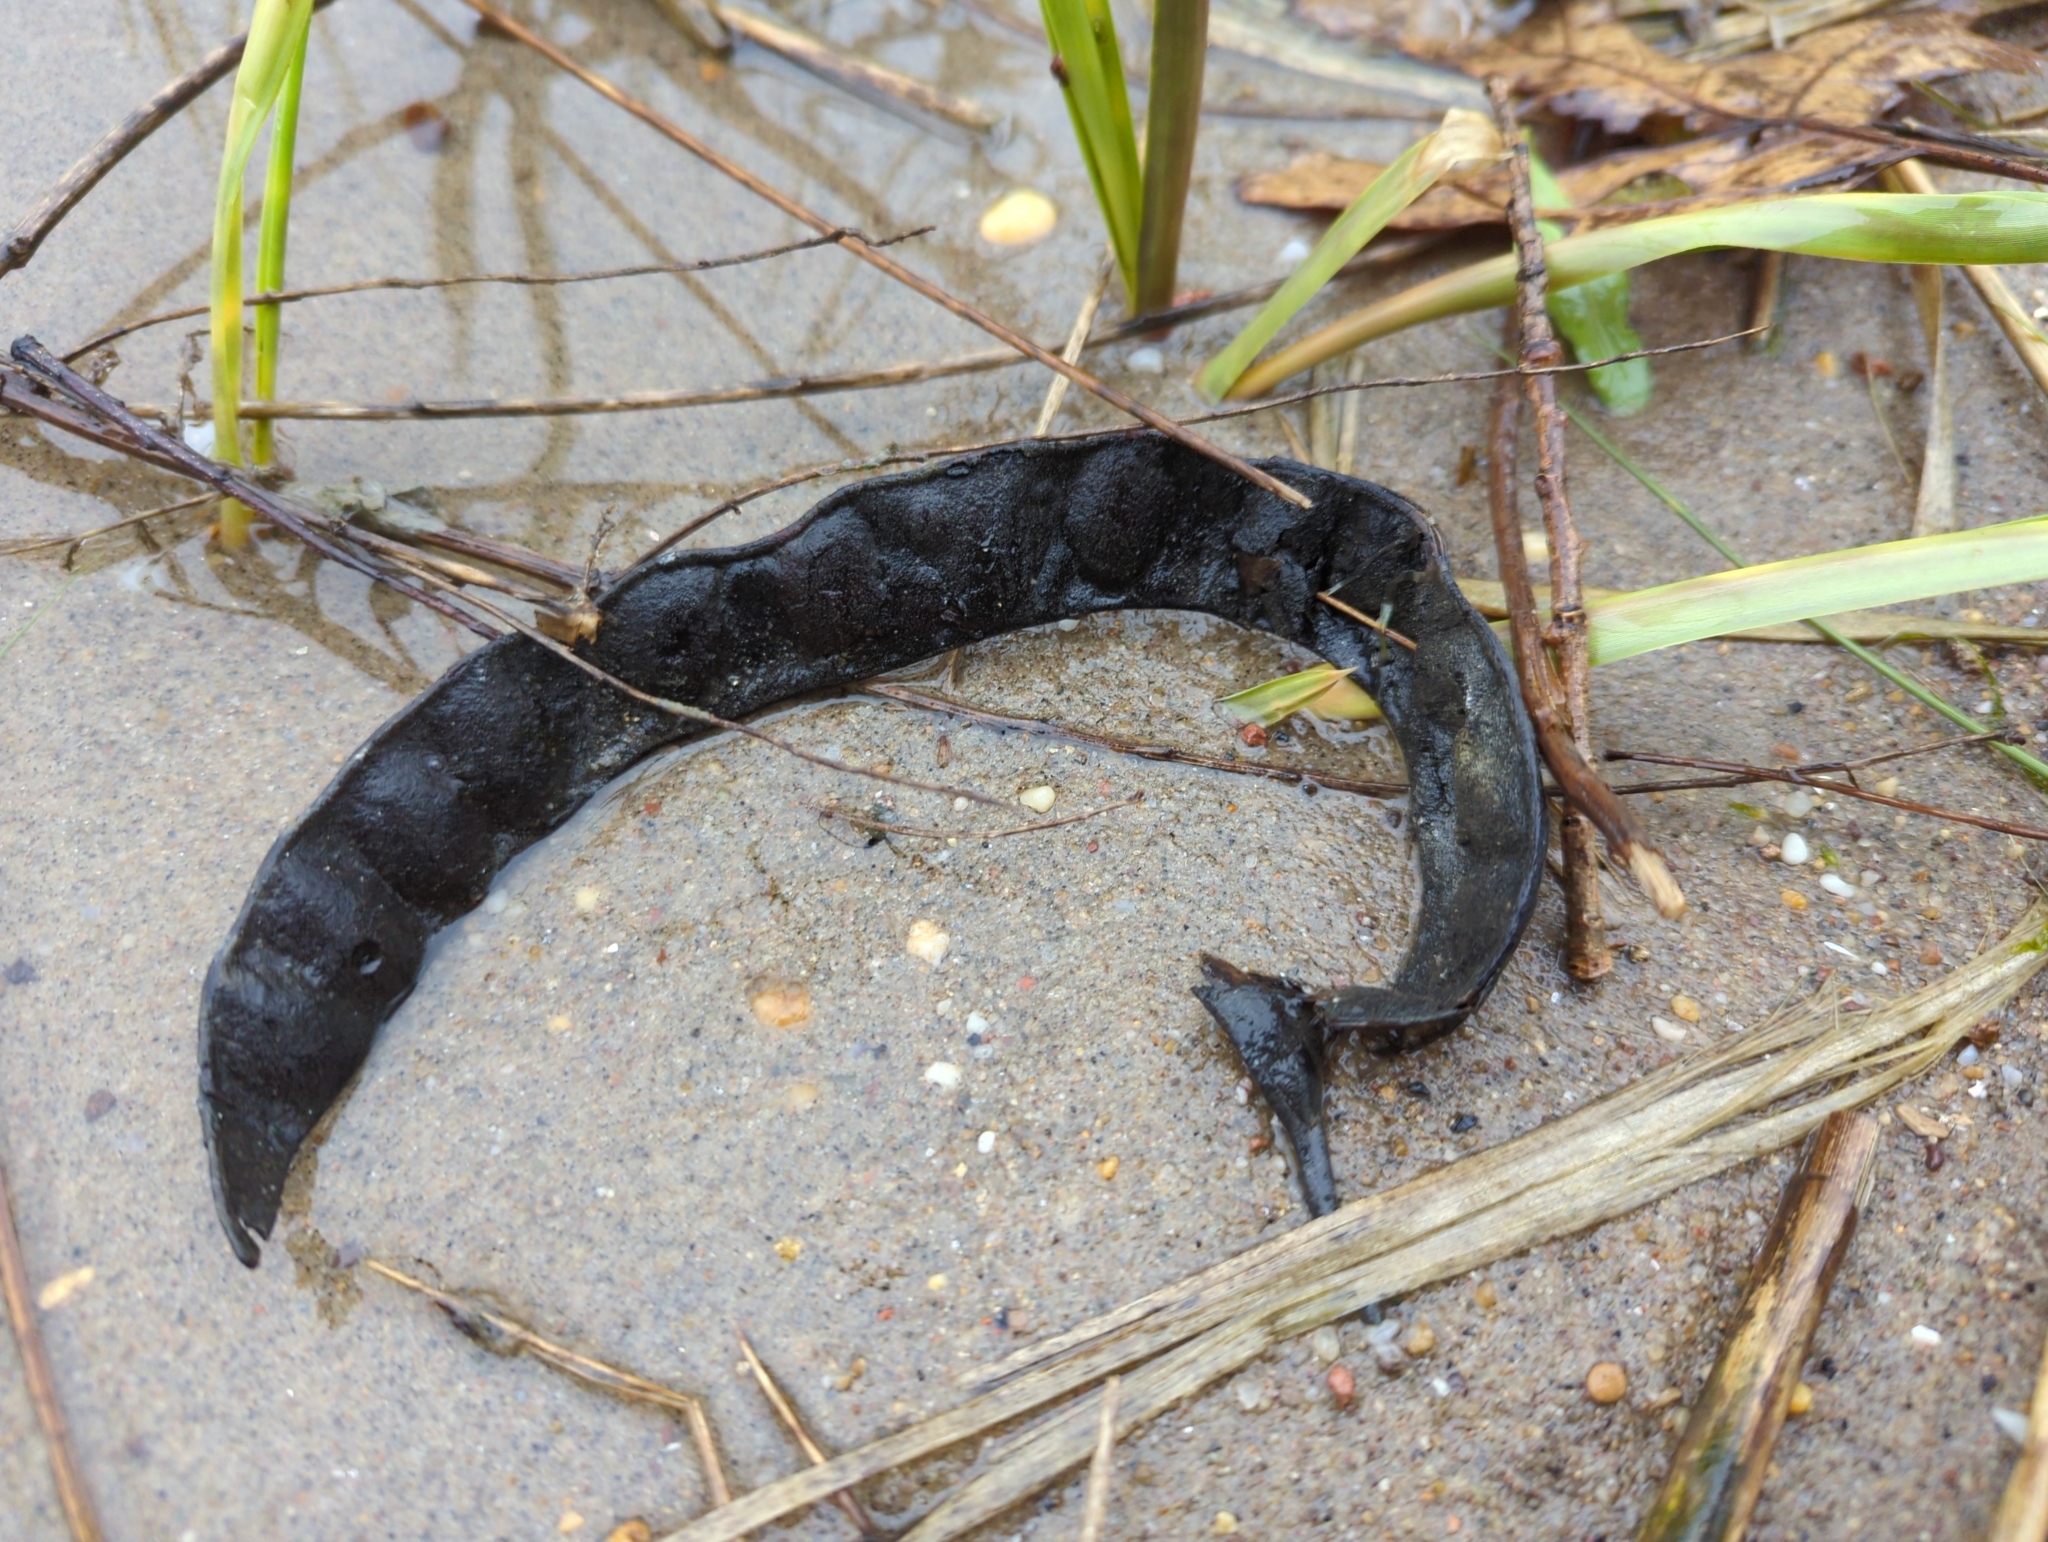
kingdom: Plantae
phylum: Tracheophyta
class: Magnoliopsida
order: Fabales
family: Fabaceae
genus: Gleditsia
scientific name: Gleditsia triacanthos
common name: Common honeylocust
